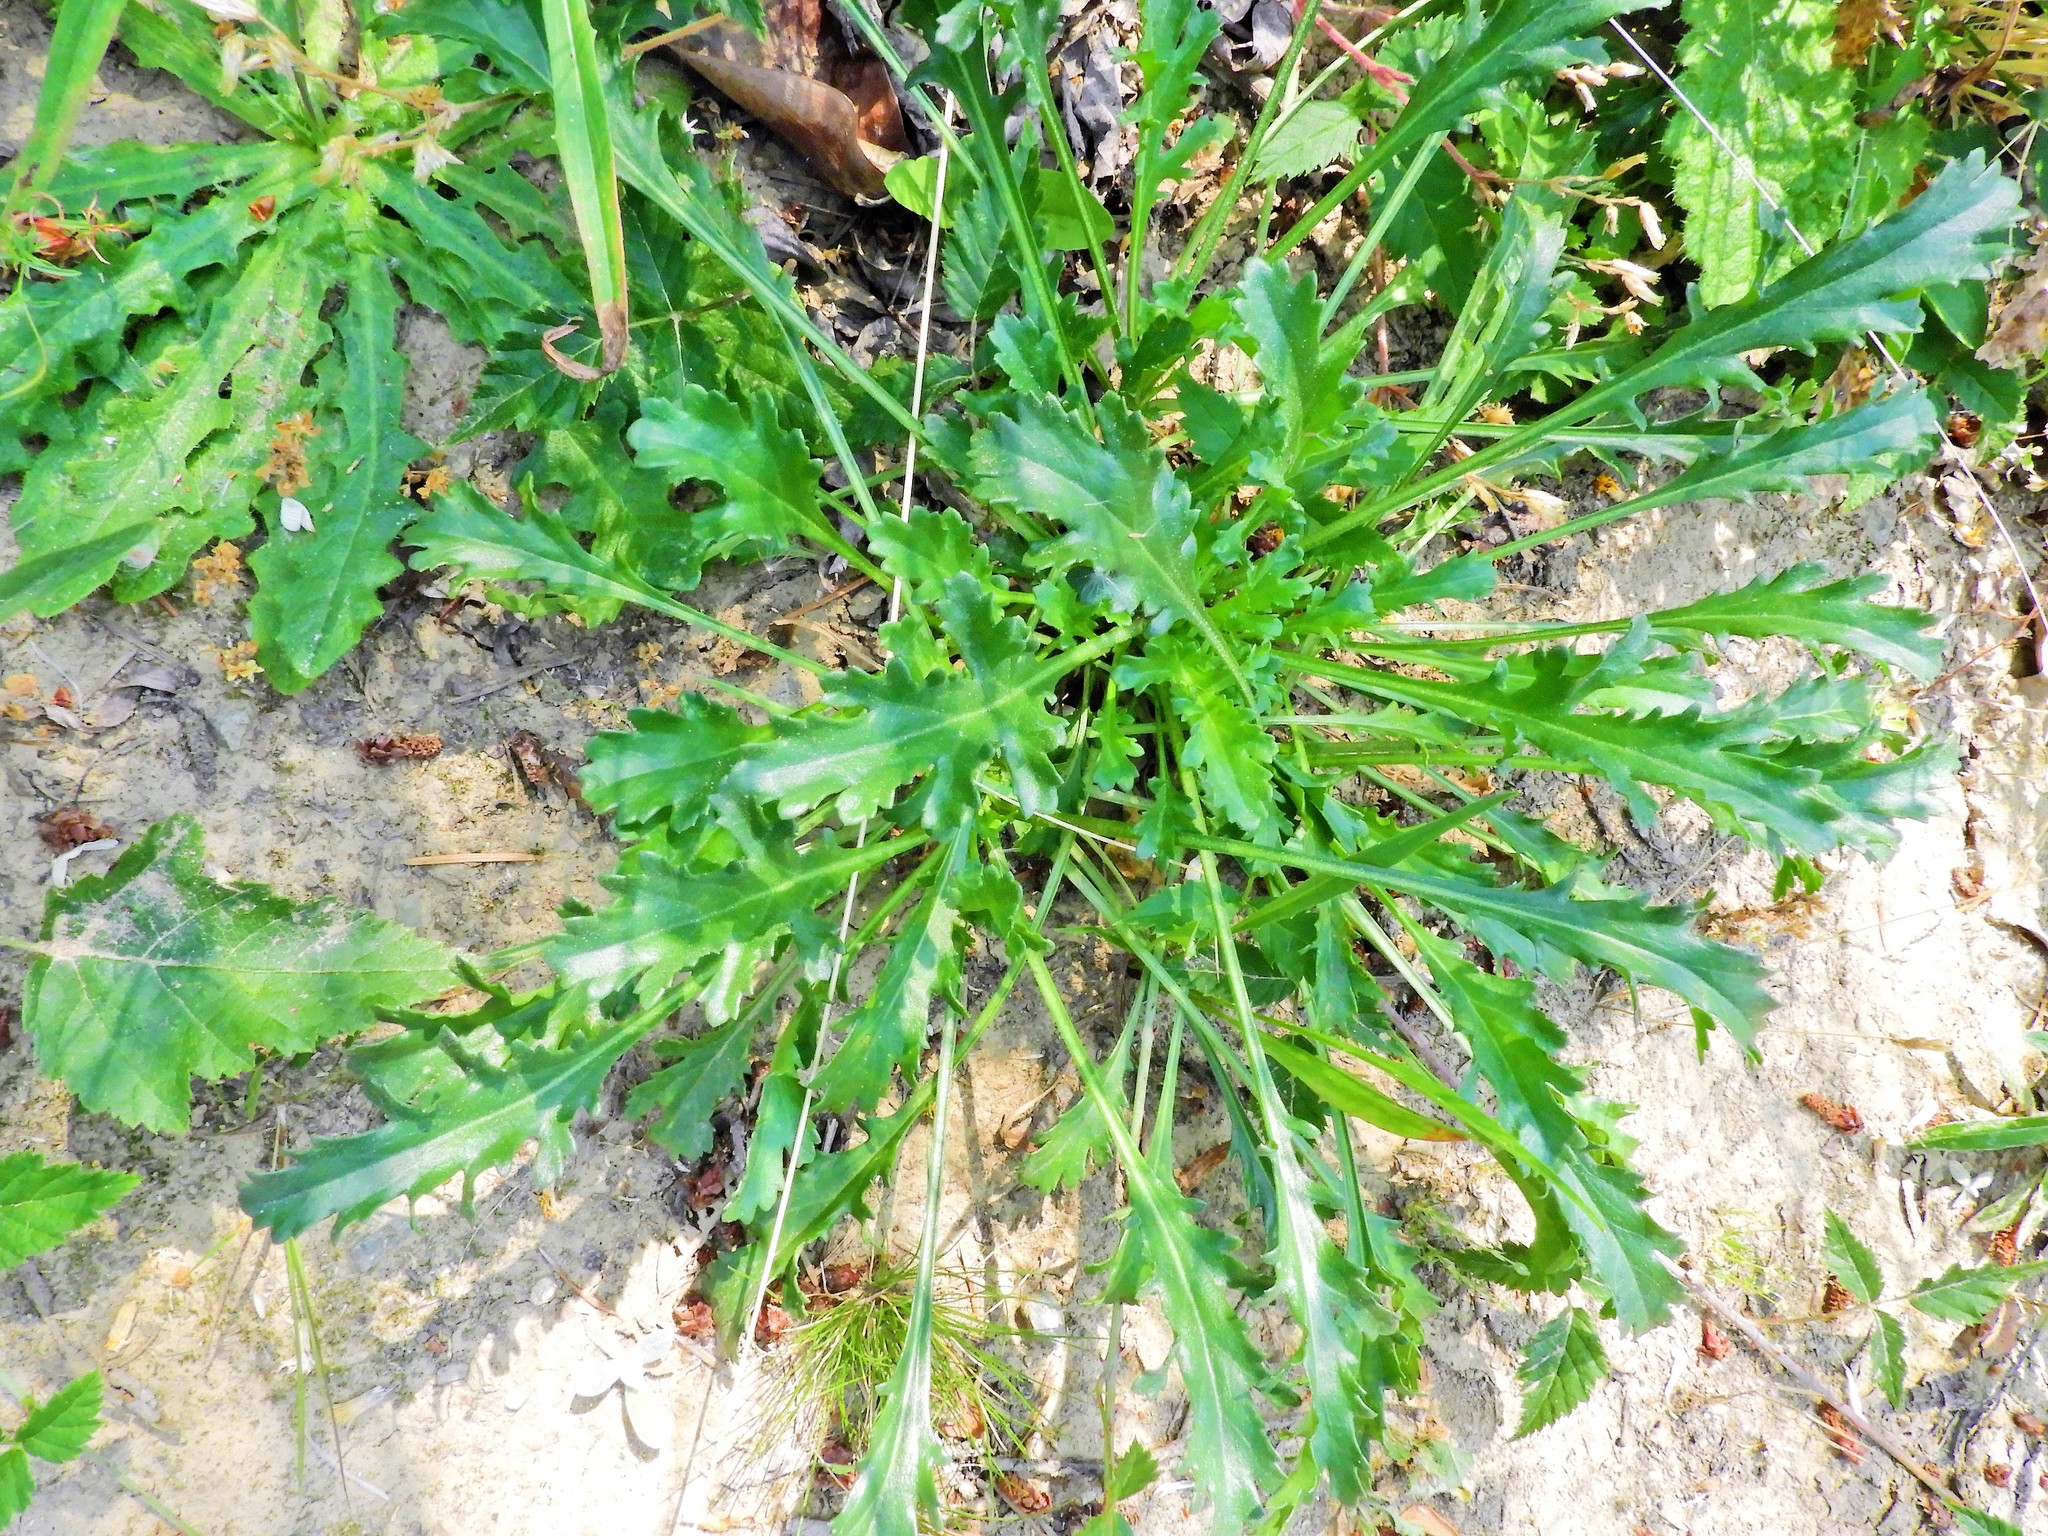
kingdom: Plantae
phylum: Tracheophyta
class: Magnoliopsida
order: Asterales
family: Asteraceae
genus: Leucanthemum
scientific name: Leucanthemum vulgare
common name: Oxeye daisy
